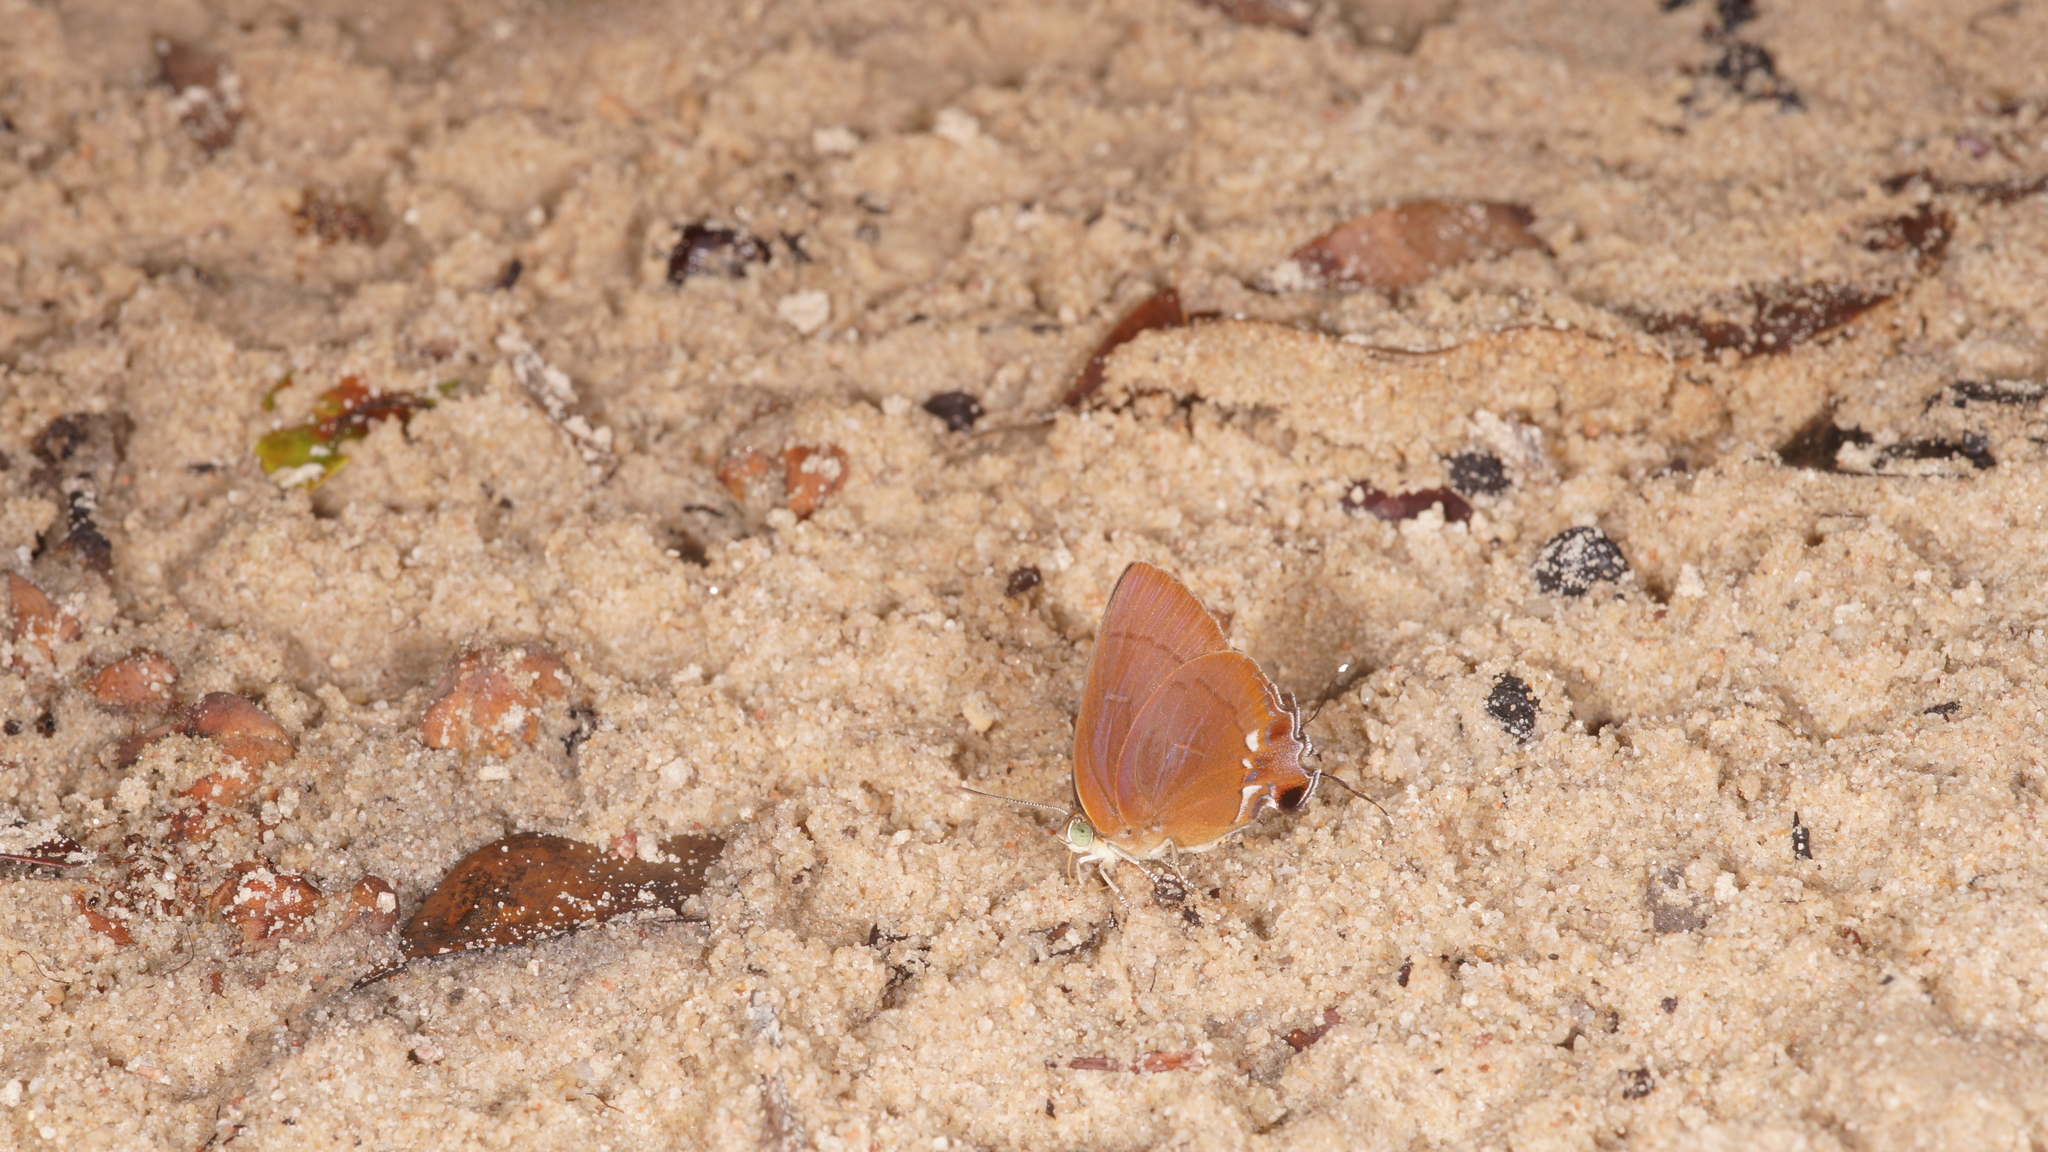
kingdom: Animalia
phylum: Arthropoda
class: Insecta
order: Lepidoptera
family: Lycaenidae
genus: Remelana
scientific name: Remelana jangala
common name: Chocolate royal
